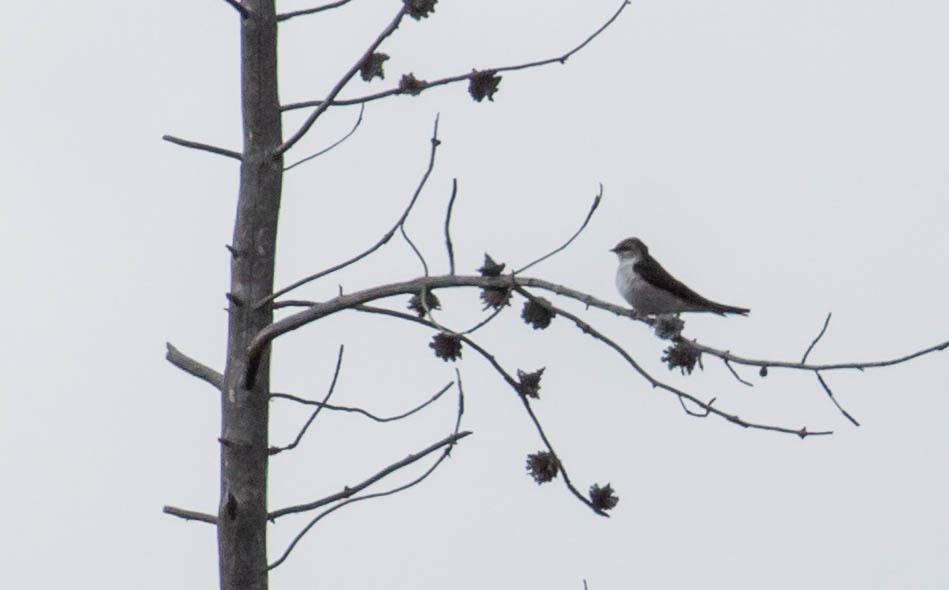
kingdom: Animalia
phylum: Chordata
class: Aves
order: Passeriformes
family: Hirundinidae
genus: Tachycineta
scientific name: Tachycineta thalassina
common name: Violet-green swallow
